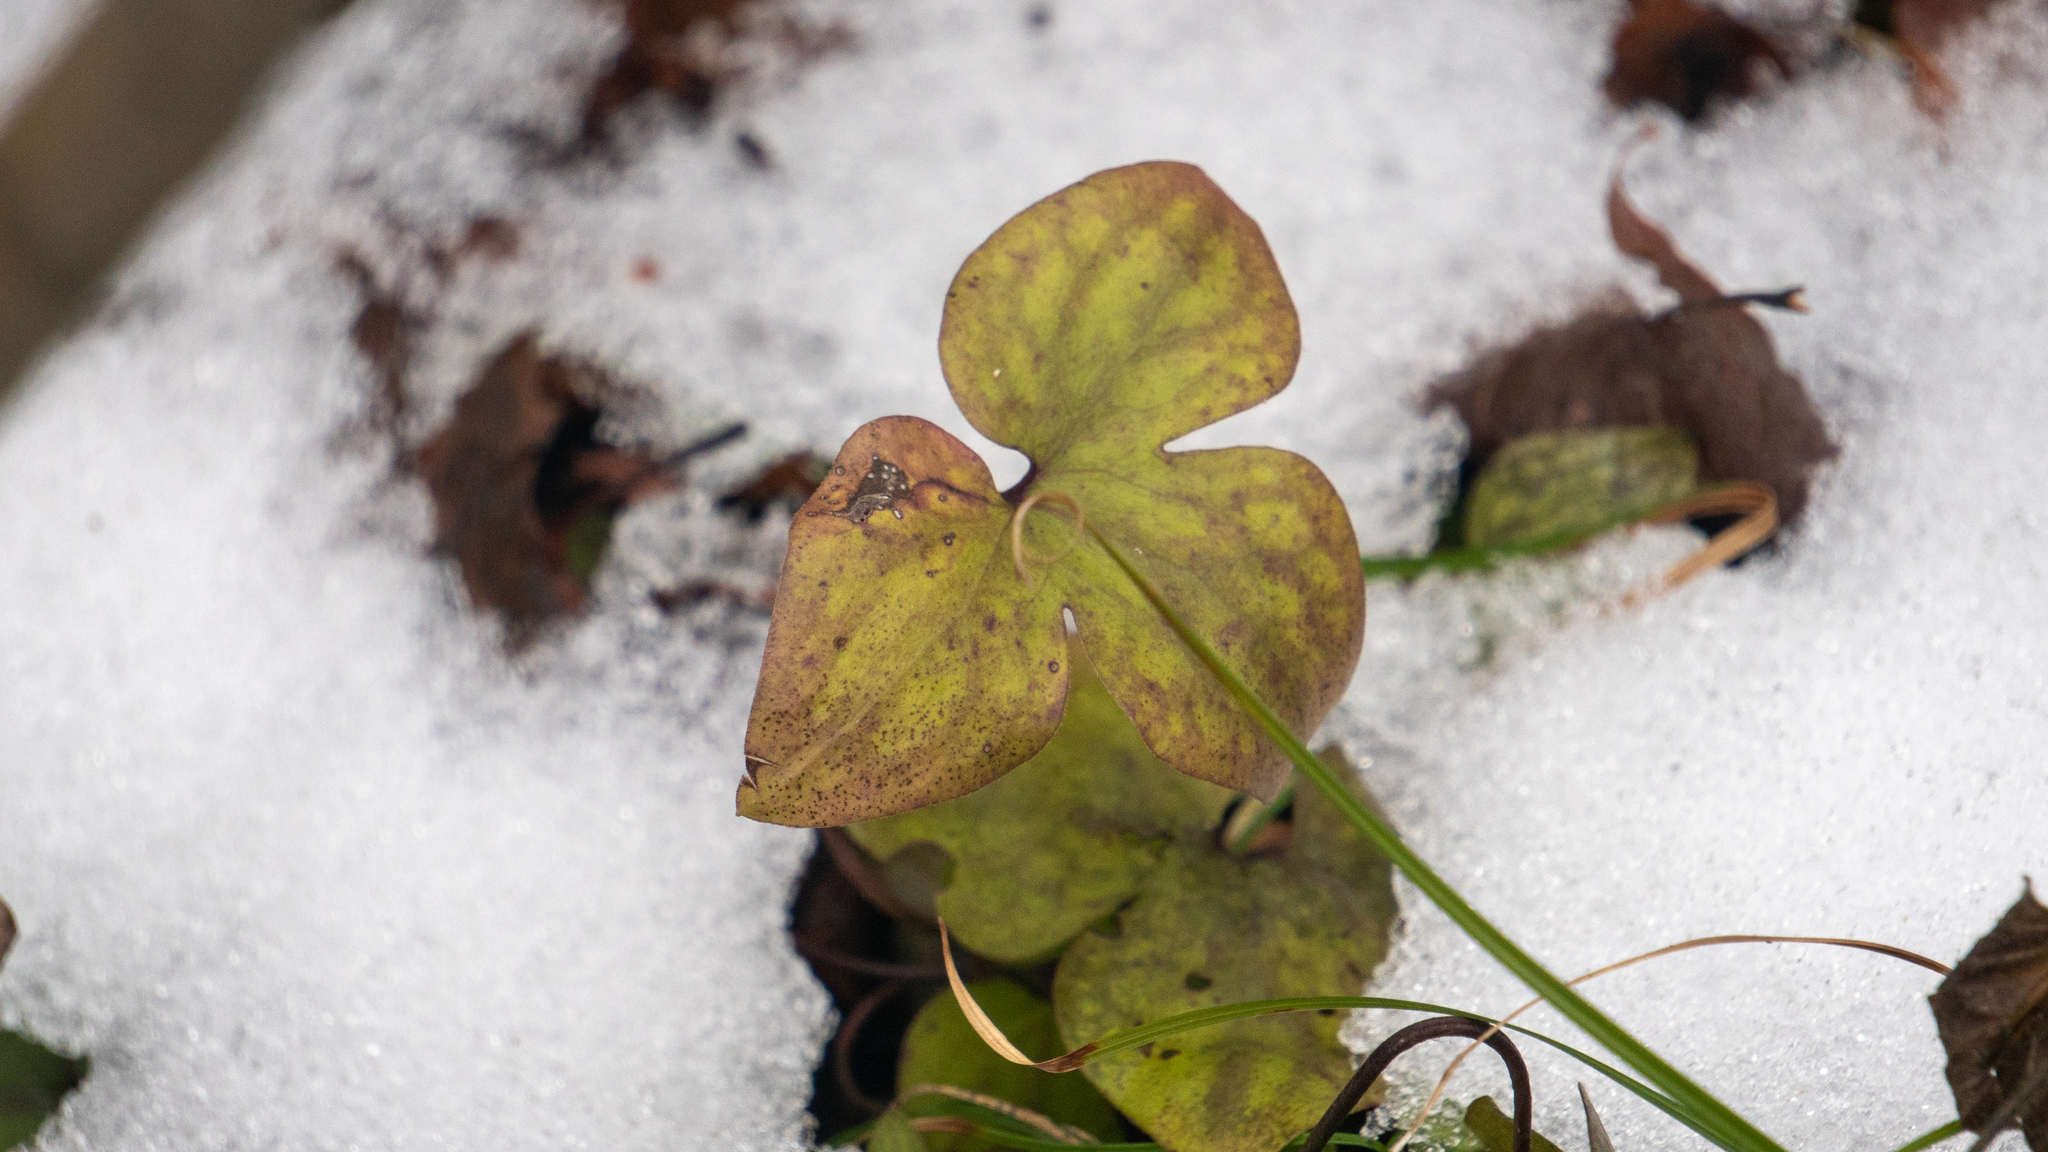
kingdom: Plantae
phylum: Tracheophyta
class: Magnoliopsida
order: Ranunculales
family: Ranunculaceae
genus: Hepatica
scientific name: Hepatica acutiloba
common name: Sharp-lobed hepatica
